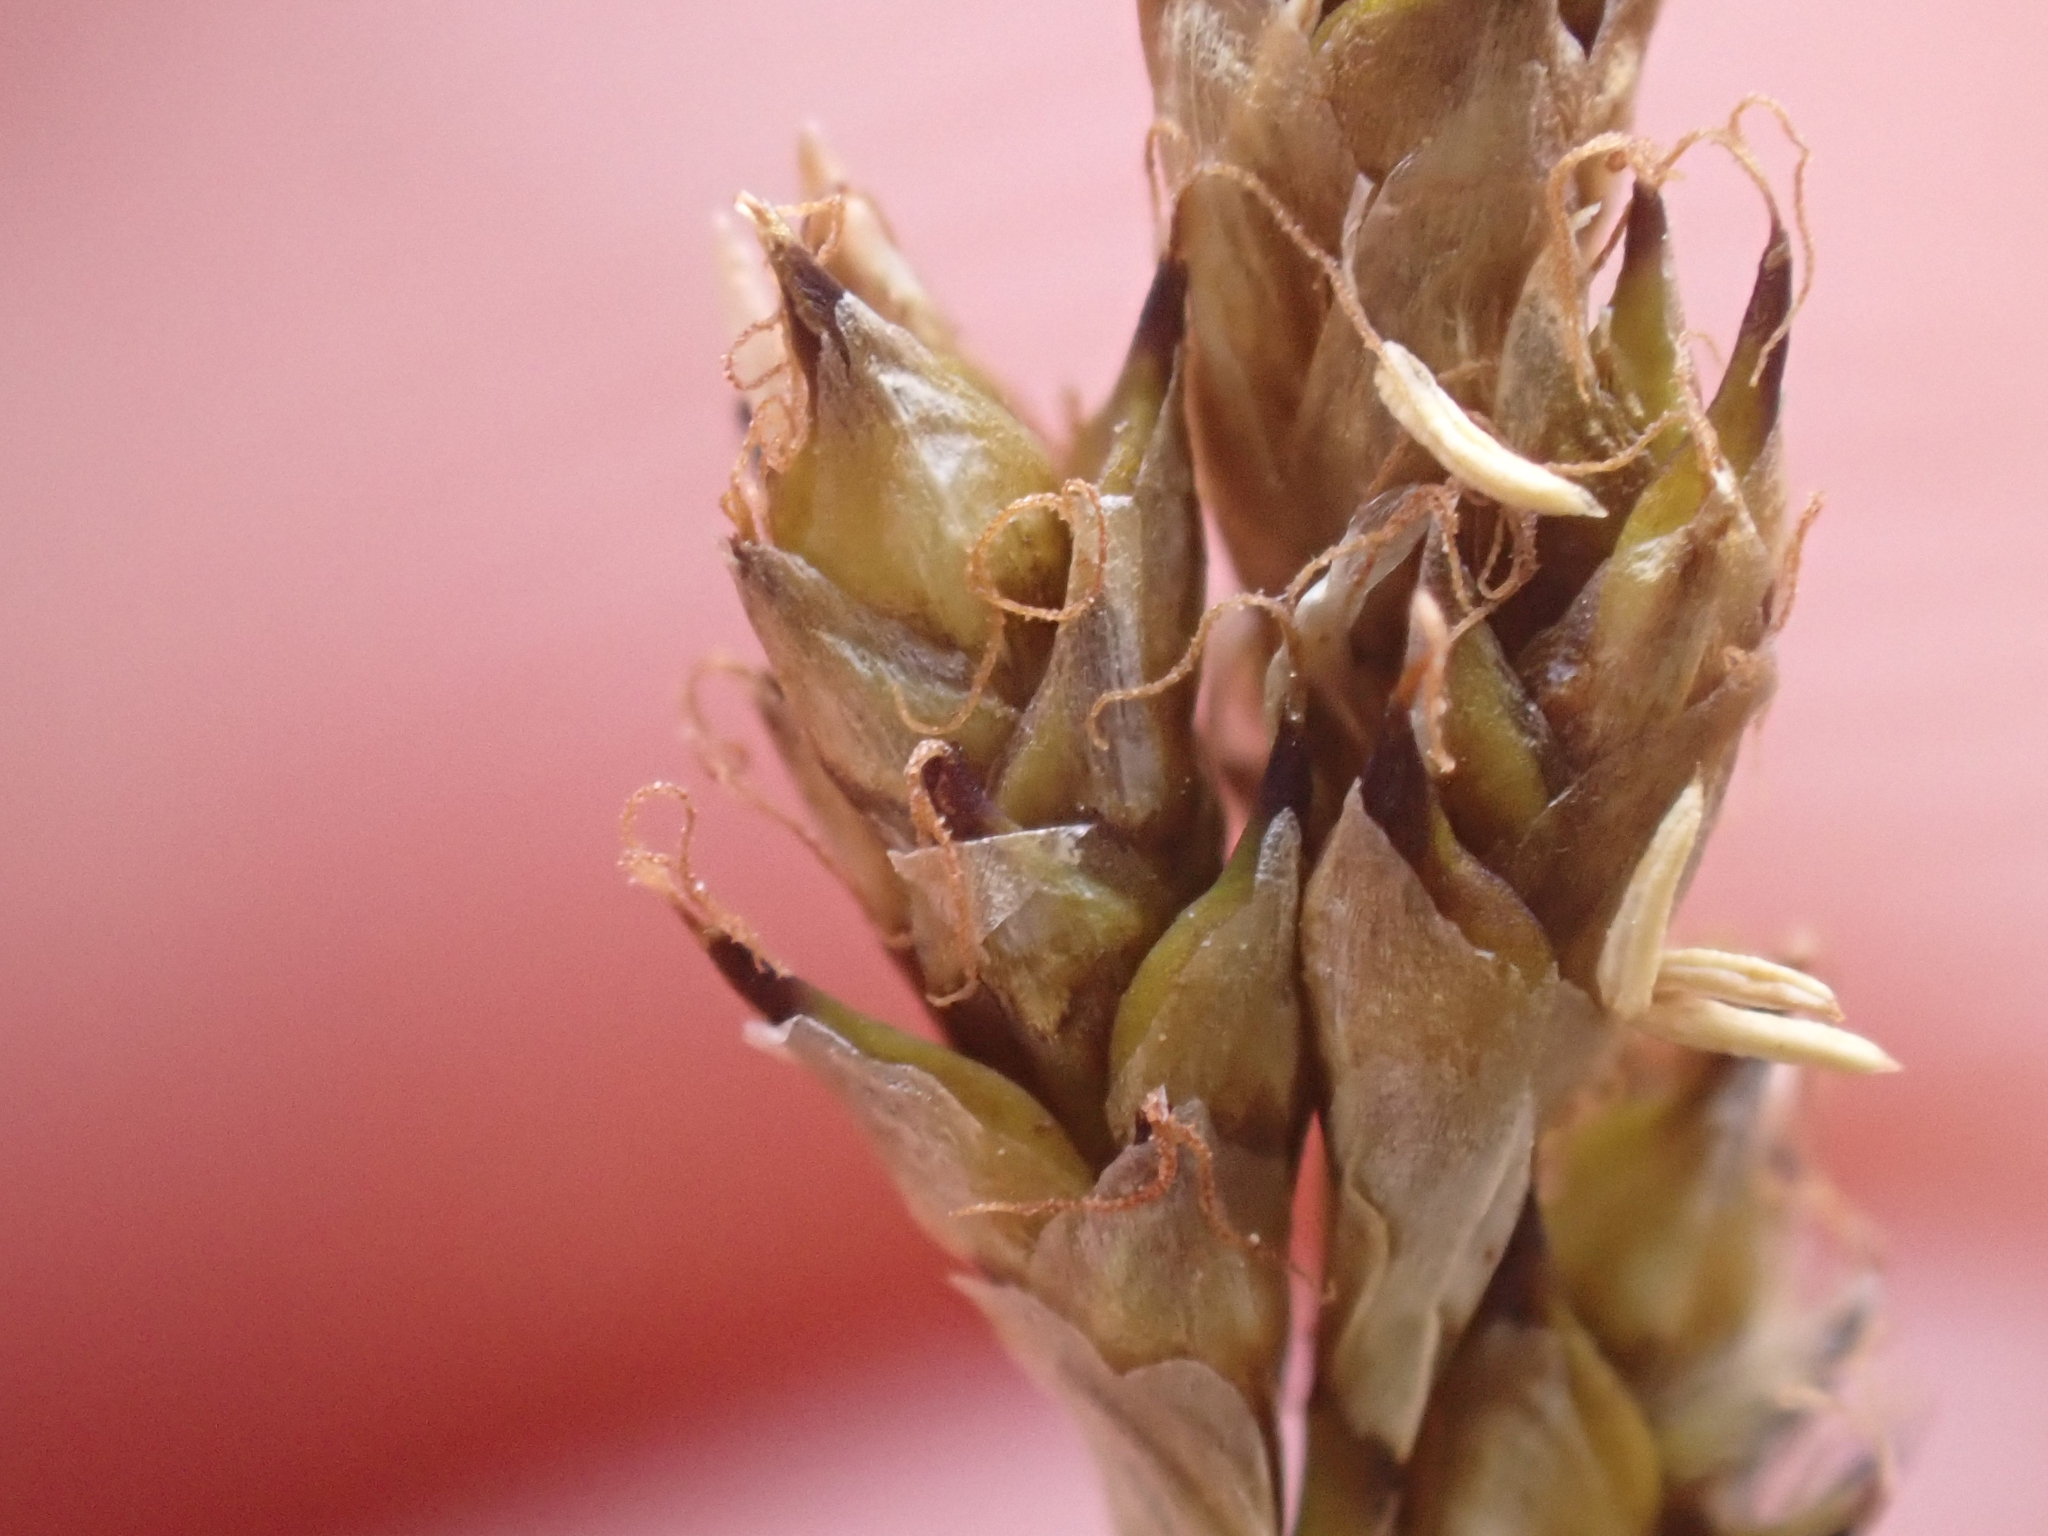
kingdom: Plantae
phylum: Tracheophyta
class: Liliopsida
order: Poales
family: Cyperaceae
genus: Carex
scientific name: Carex lachenalii
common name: Hare's-foot sedge
